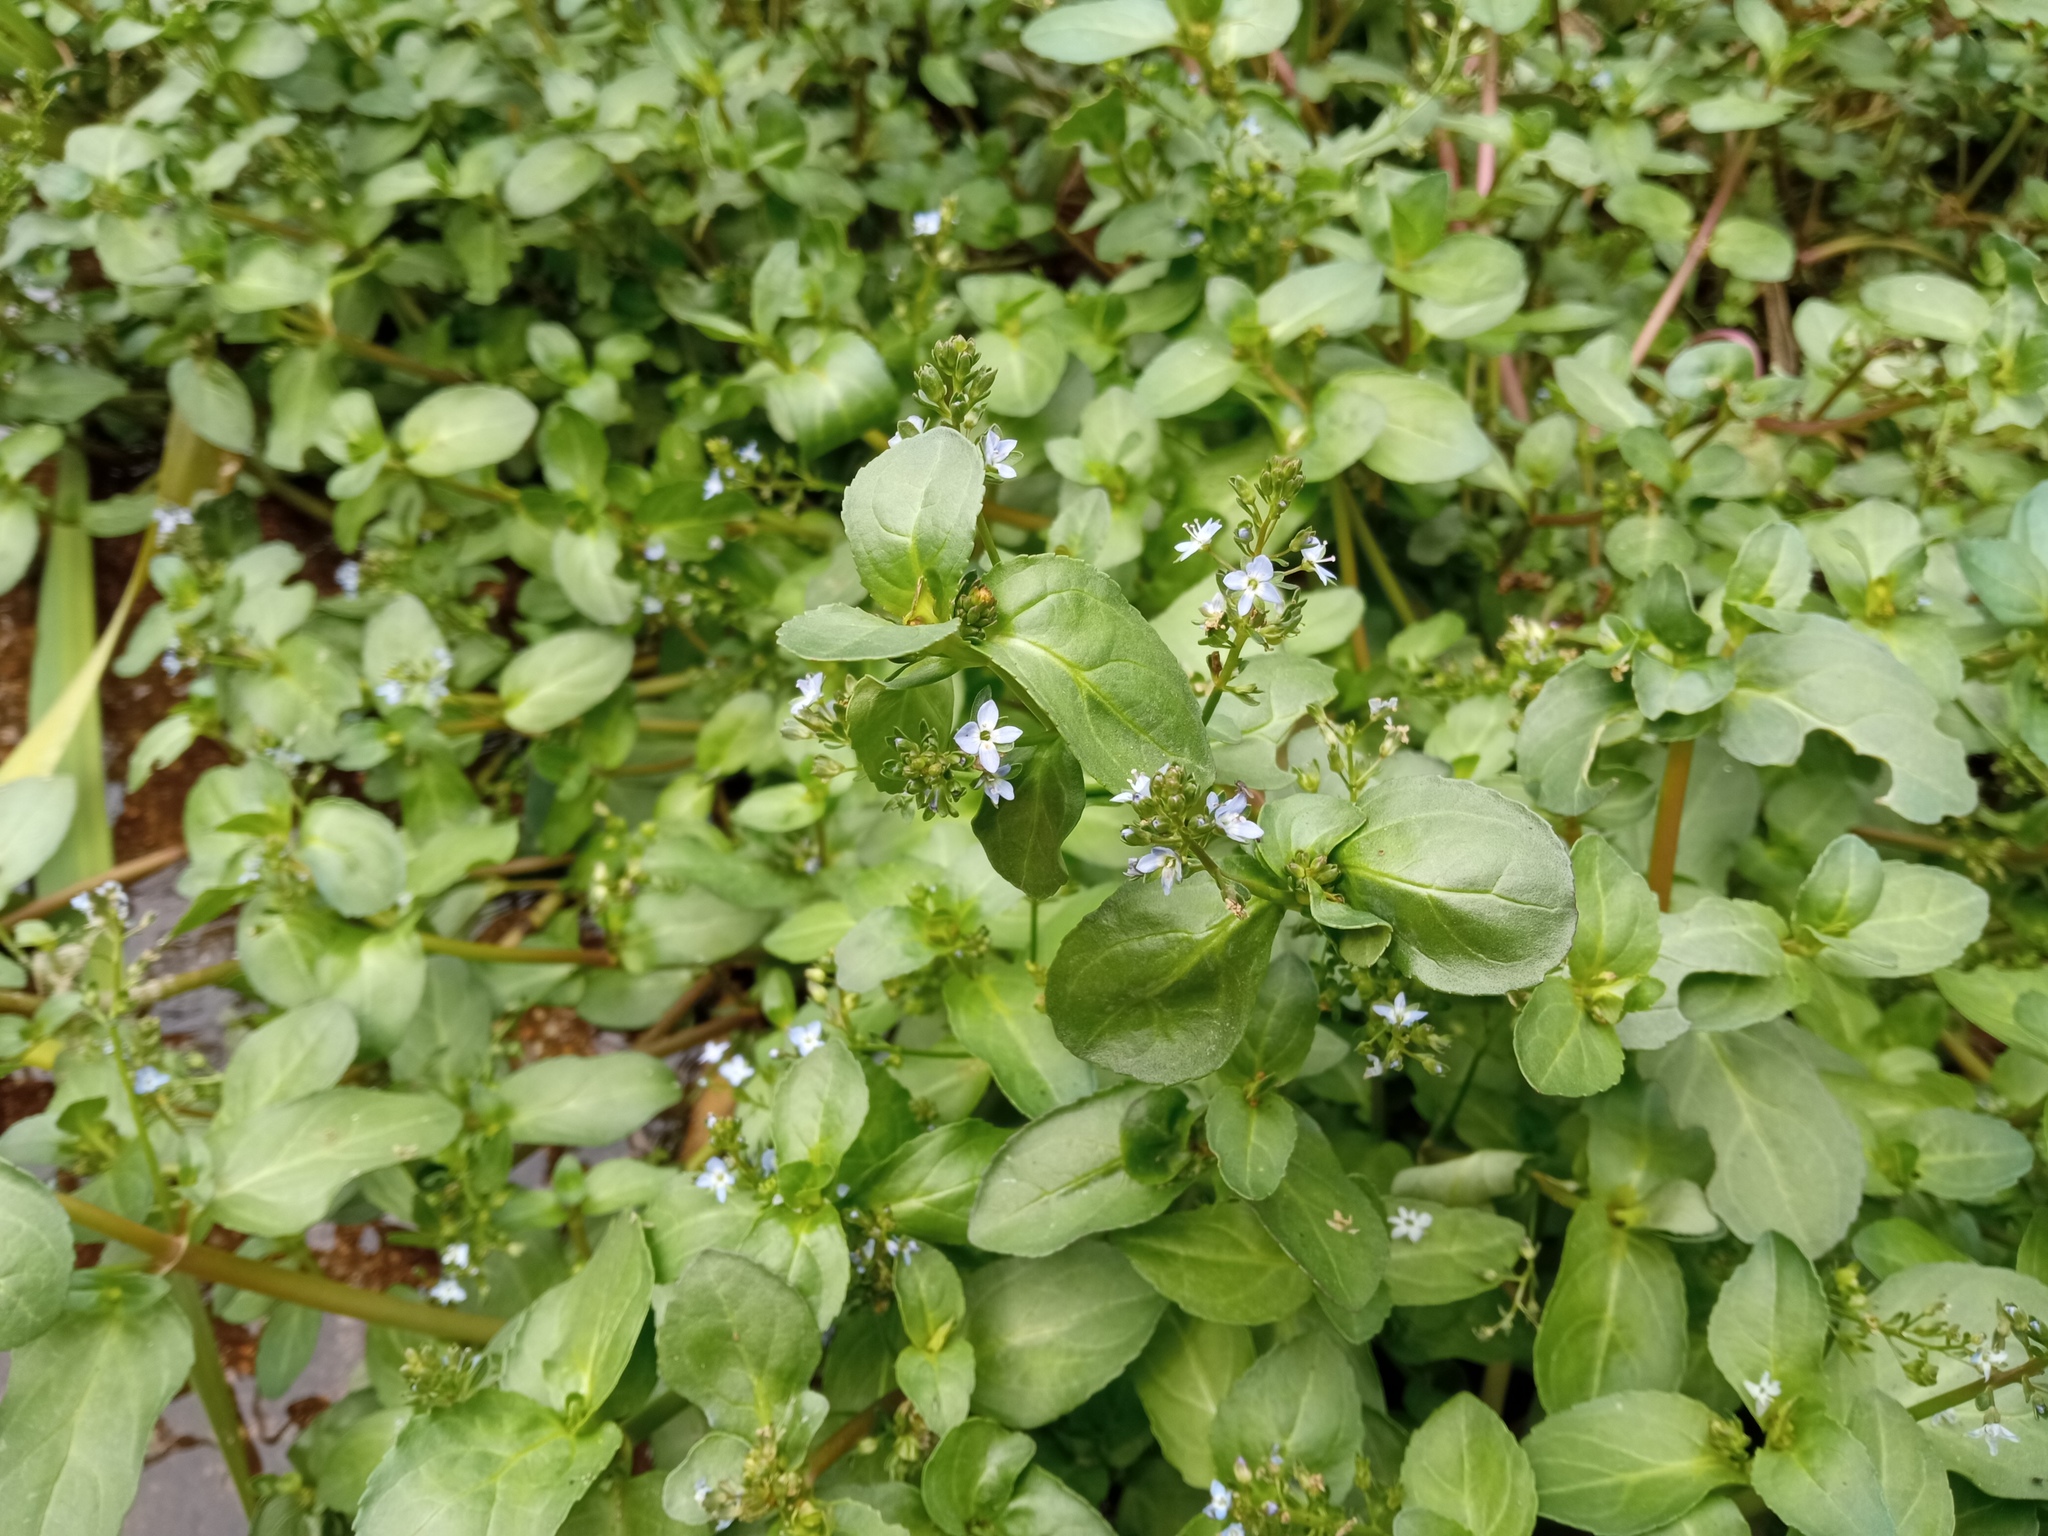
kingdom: Plantae
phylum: Tracheophyta
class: Magnoliopsida
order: Lamiales
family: Plantaginaceae
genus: Veronica
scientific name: Veronica beccabunga
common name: Brooklime
